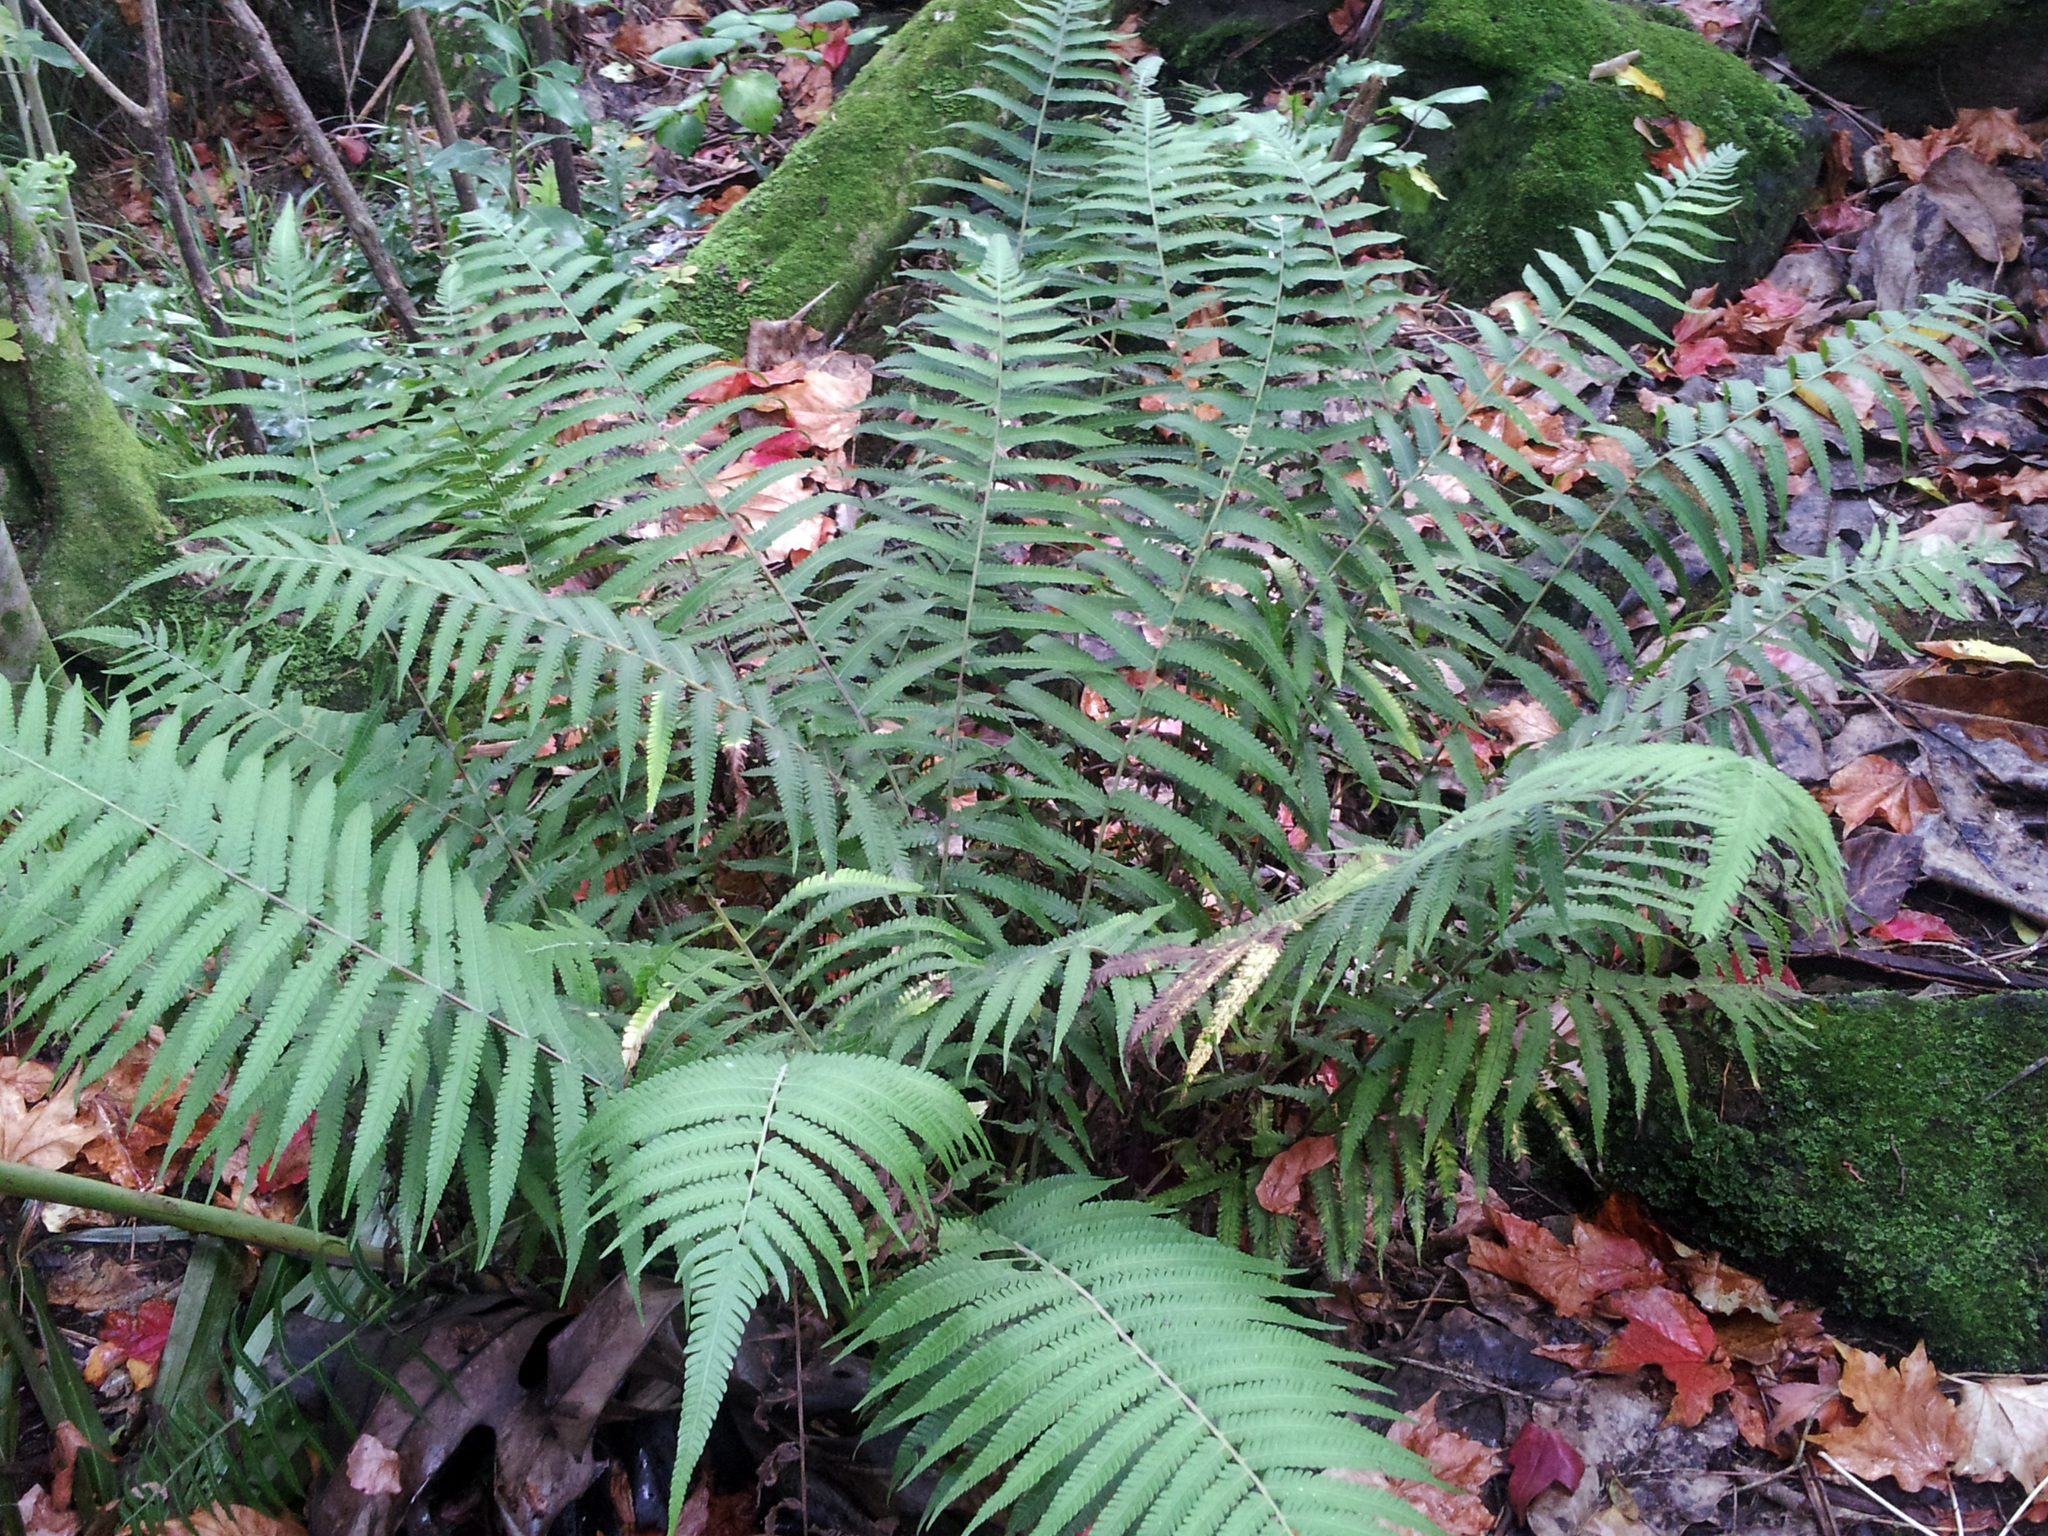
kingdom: Plantae
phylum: Tracheophyta
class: Polypodiopsida
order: Polypodiales
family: Thelypteridaceae
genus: Christella
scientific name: Christella dentata
